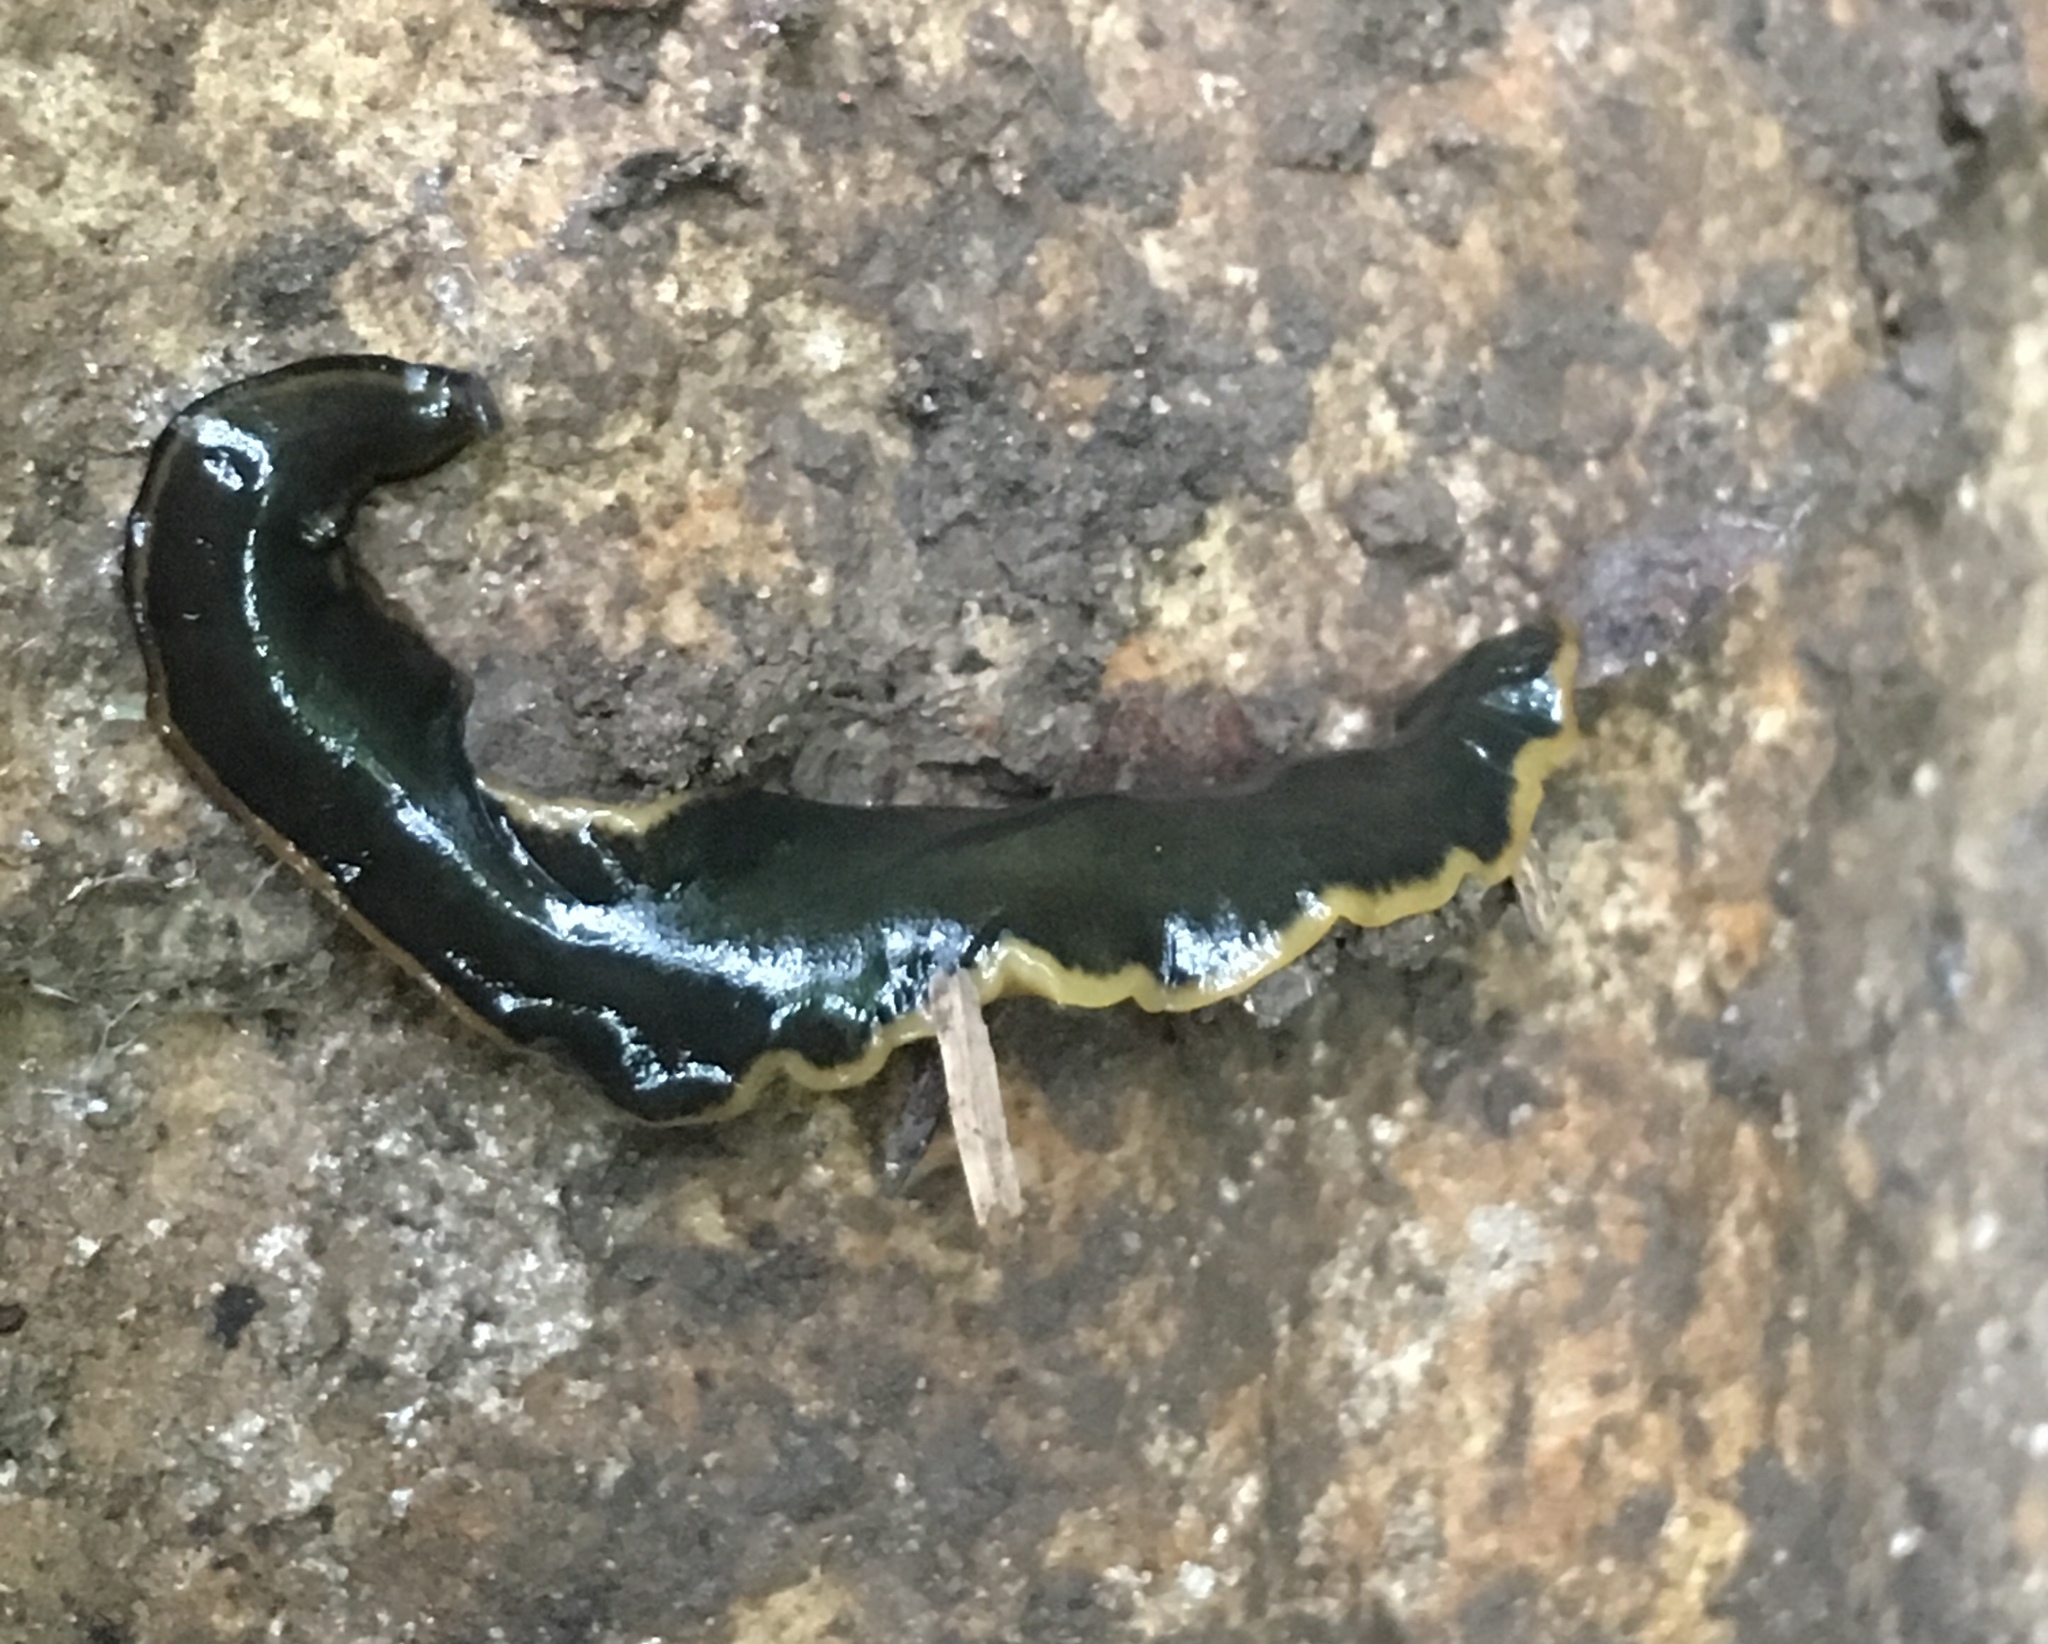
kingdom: Animalia
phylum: Platyhelminthes
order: Tricladida
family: Geoplanidae
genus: Amaga
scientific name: Amaga becki
